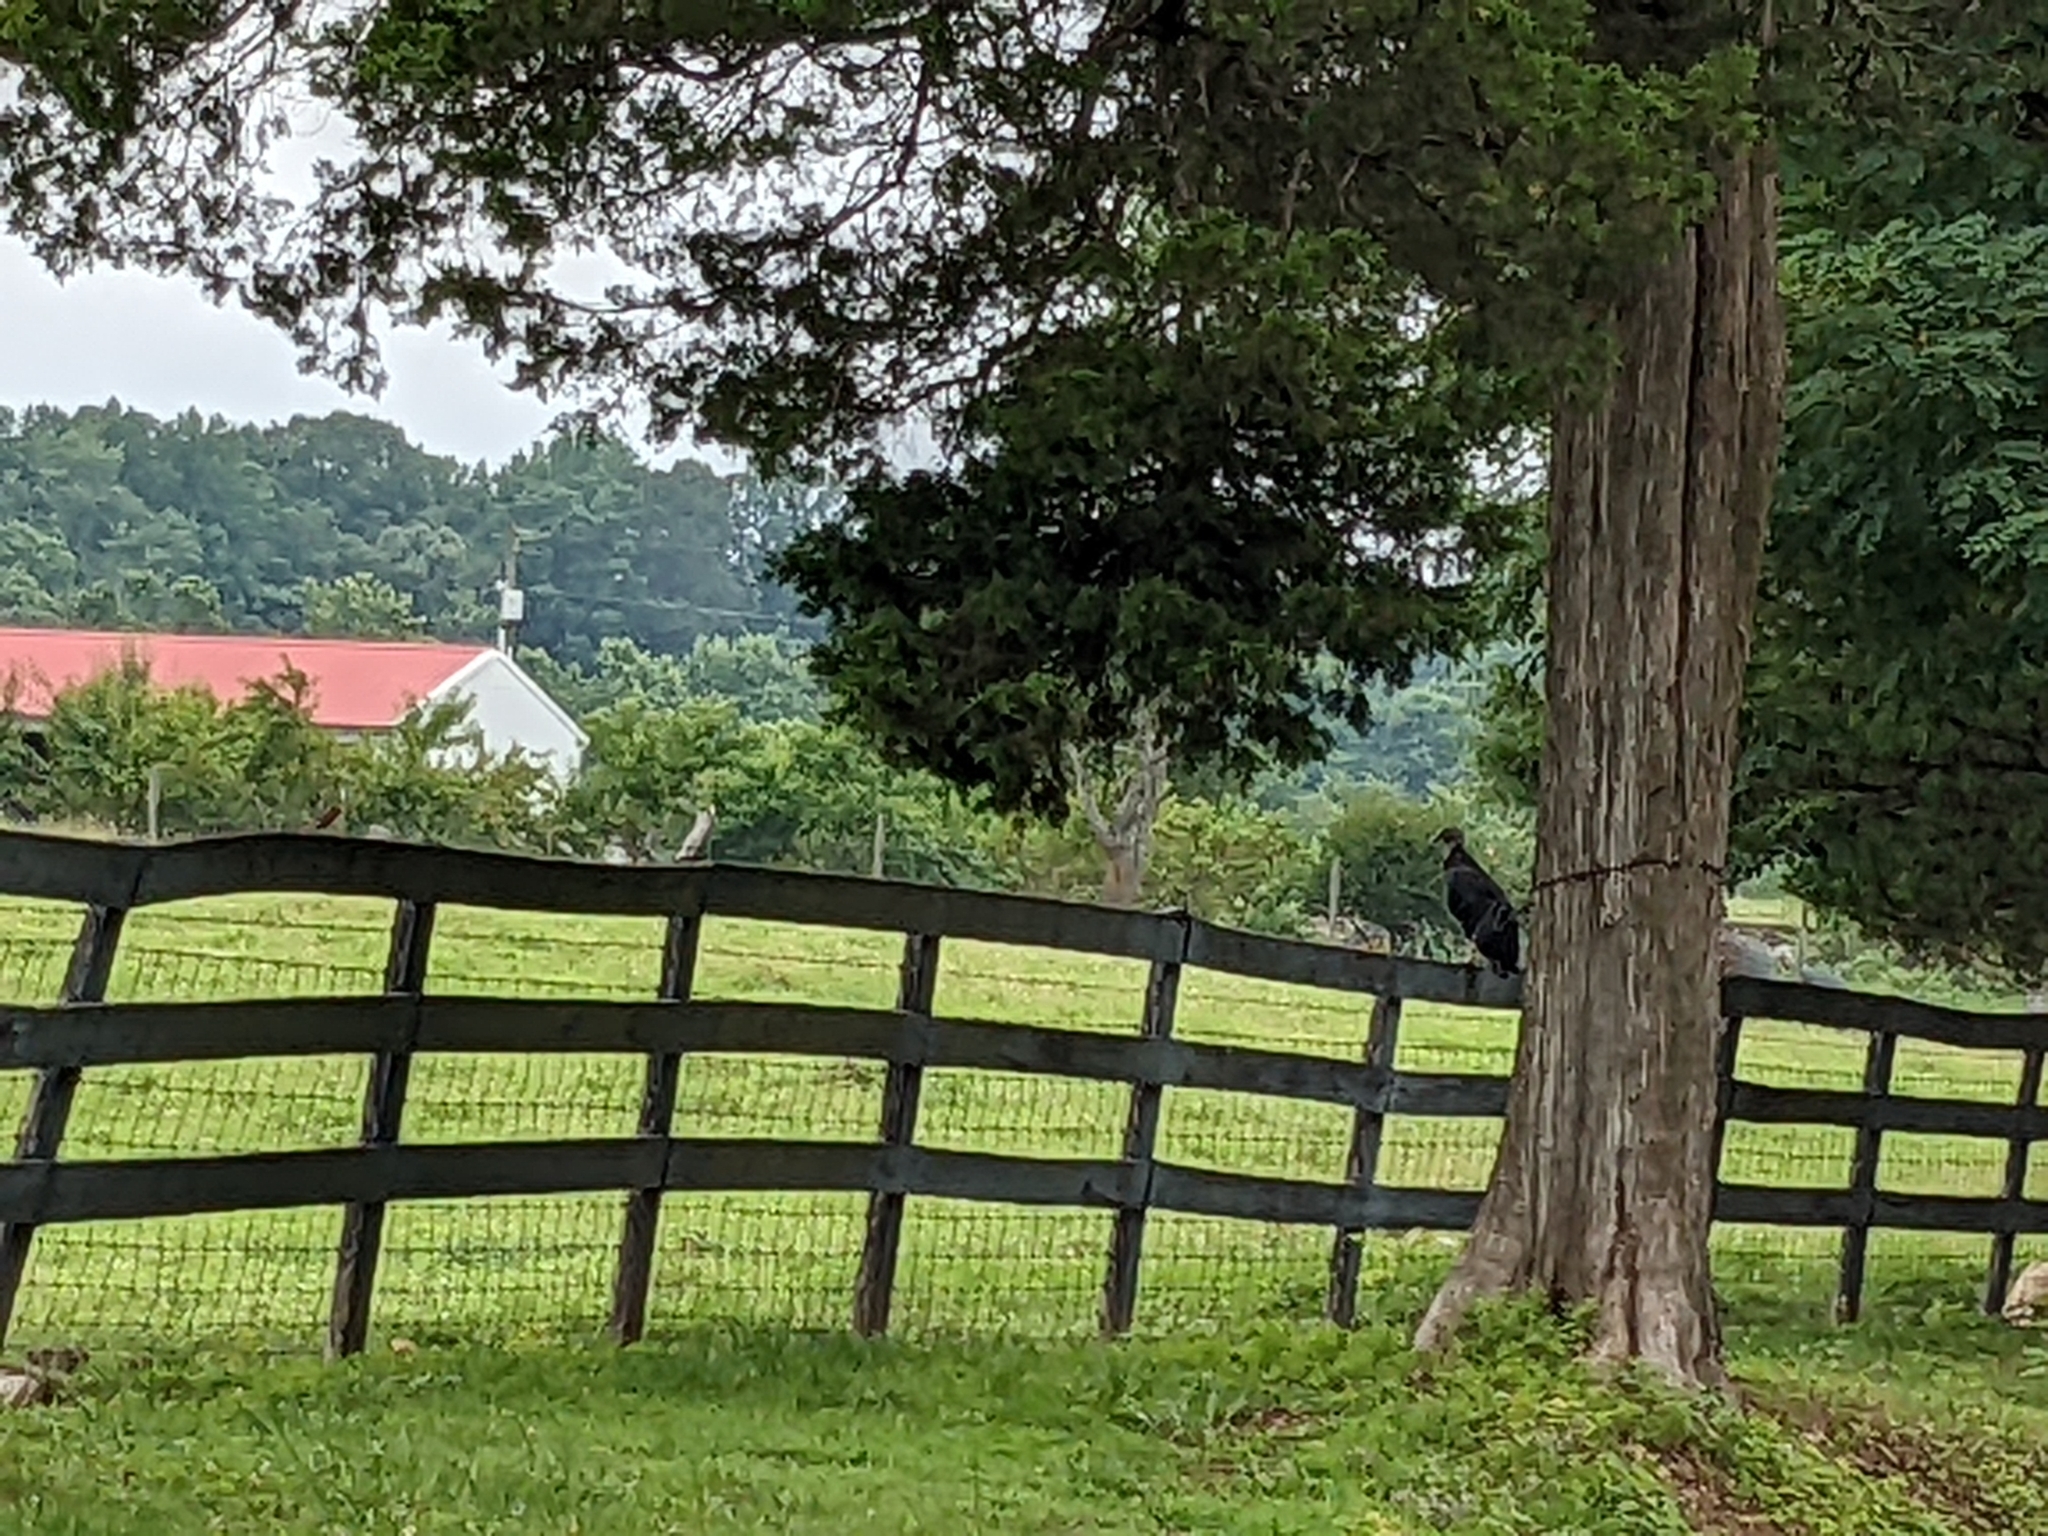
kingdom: Animalia
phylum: Chordata
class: Aves
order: Accipitriformes
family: Cathartidae
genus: Coragyps
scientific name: Coragyps atratus
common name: Black vulture
